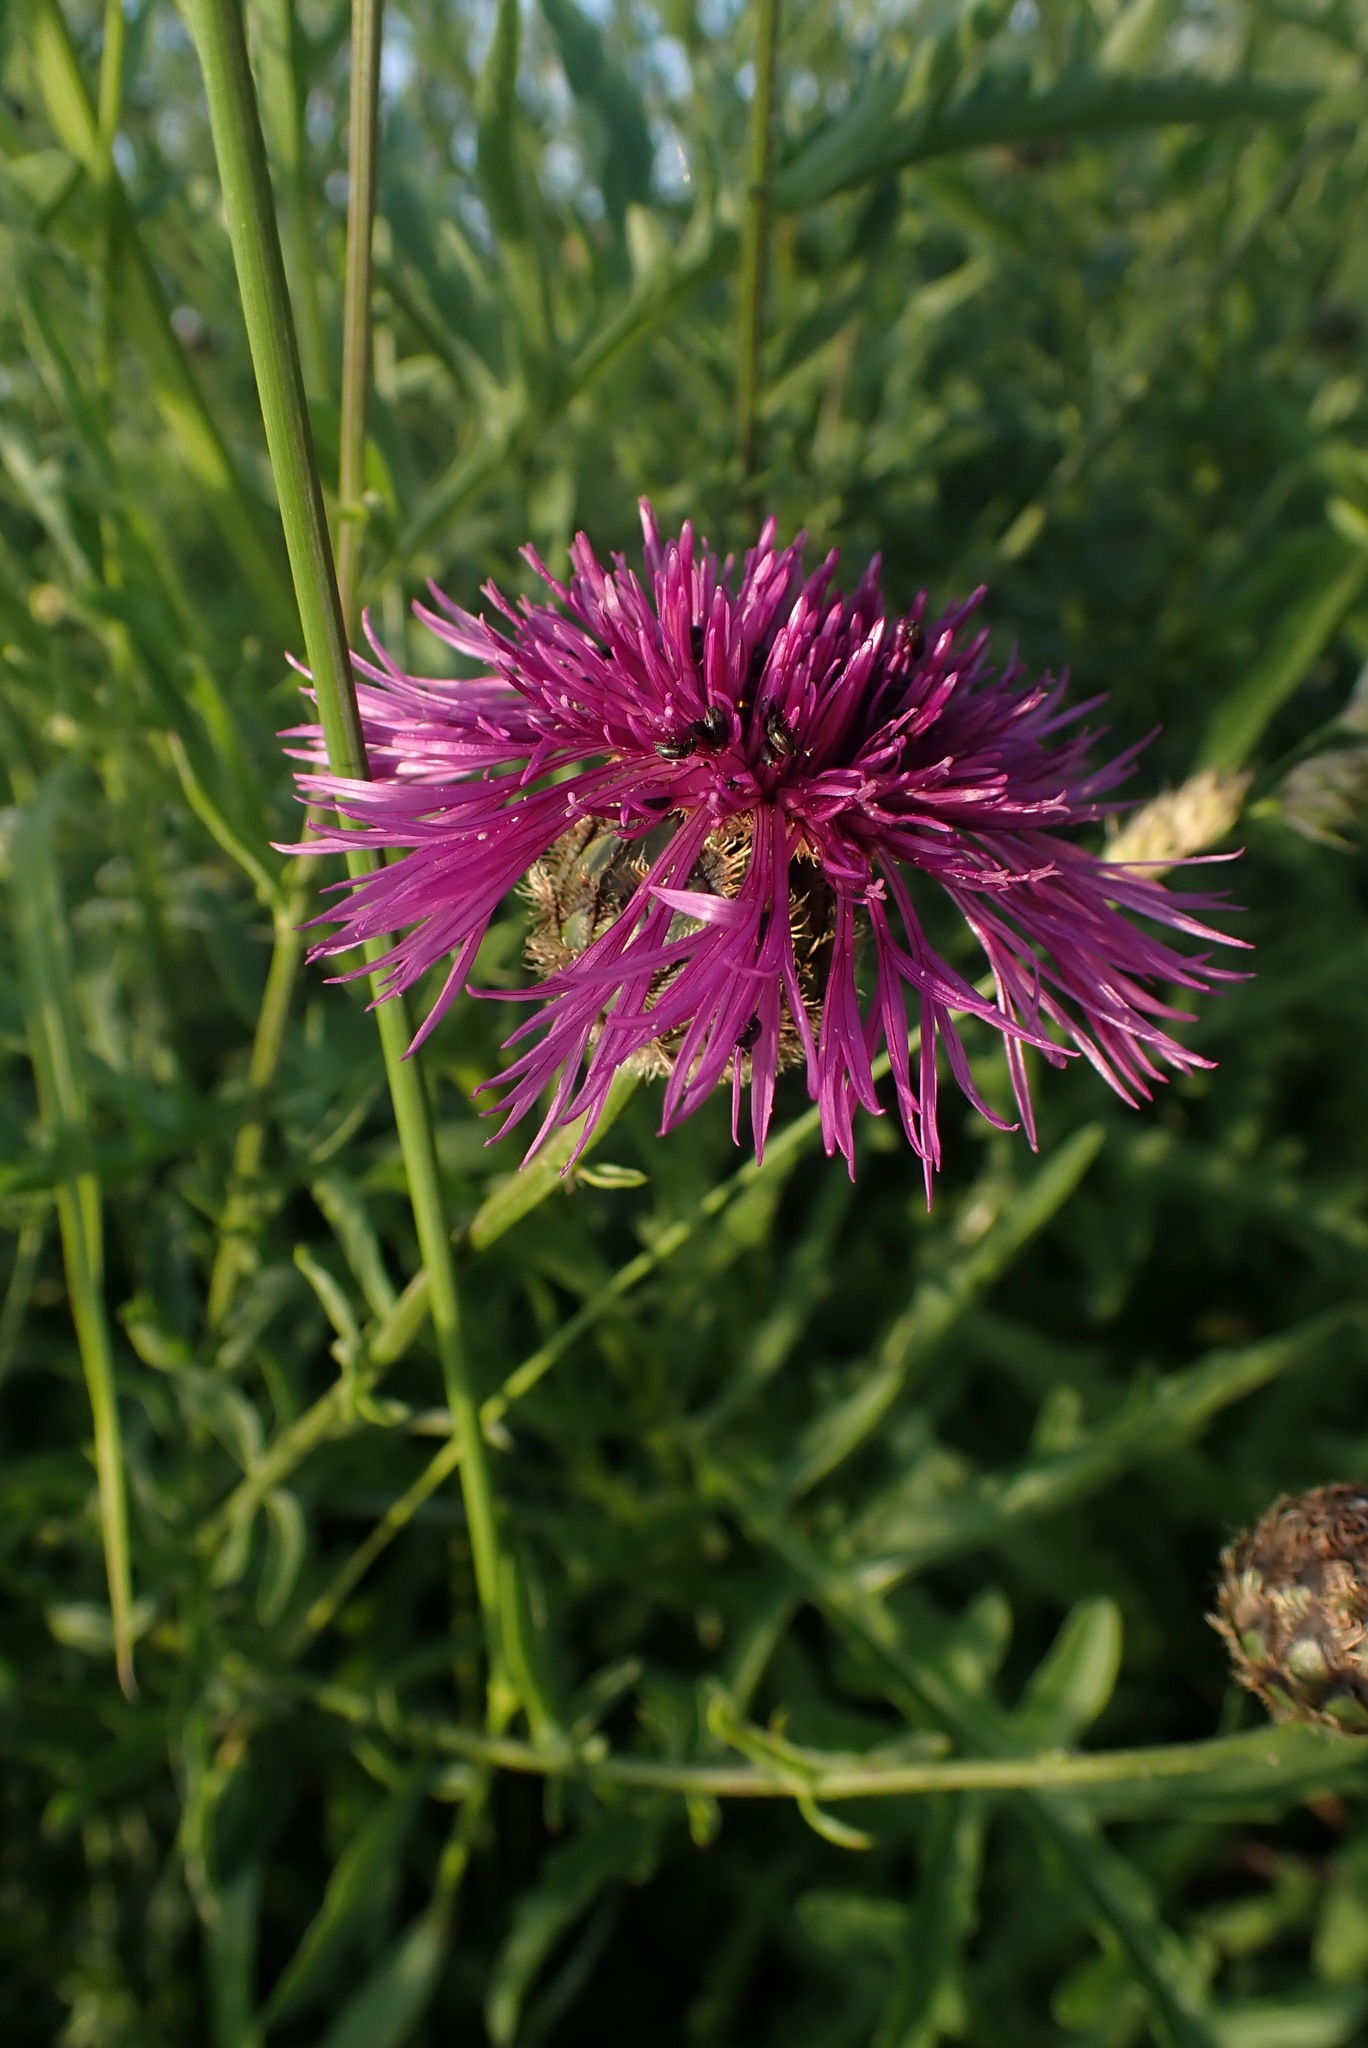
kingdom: Plantae
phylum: Tracheophyta
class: Magnoliopsida
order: Asterales
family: Asteraceae
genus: Centaurea
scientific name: Centaurea scabiosa
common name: Greater knapweed
